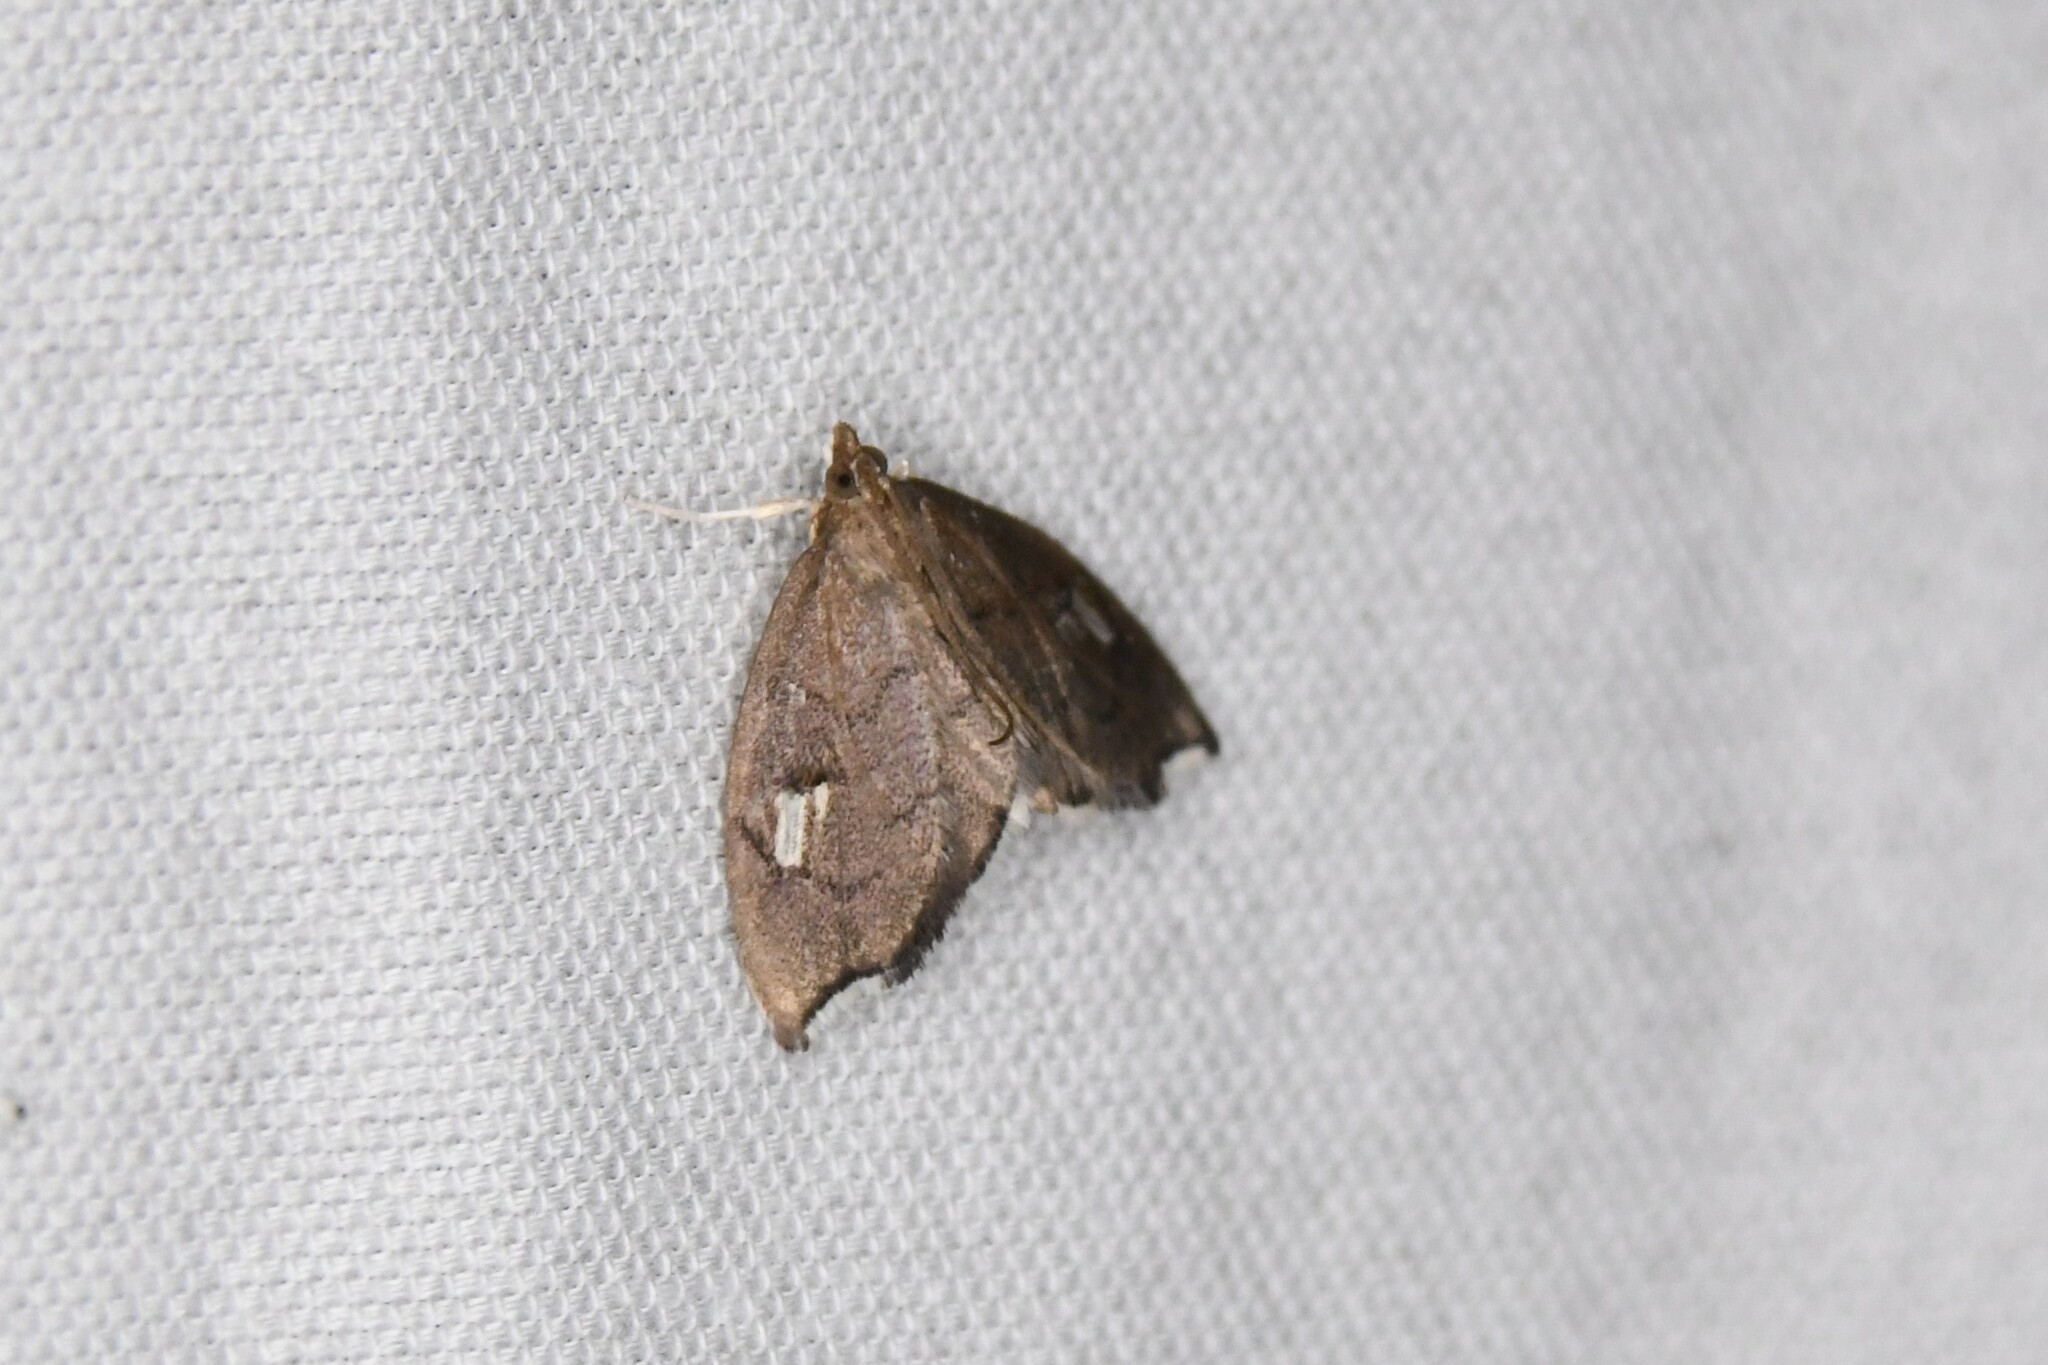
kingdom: Animalia
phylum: Arthropoda
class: Insecta
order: Lepidoptera
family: Crambidae
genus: Perispasta
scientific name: Perispasta caeculalis
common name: Titian peale's moth
